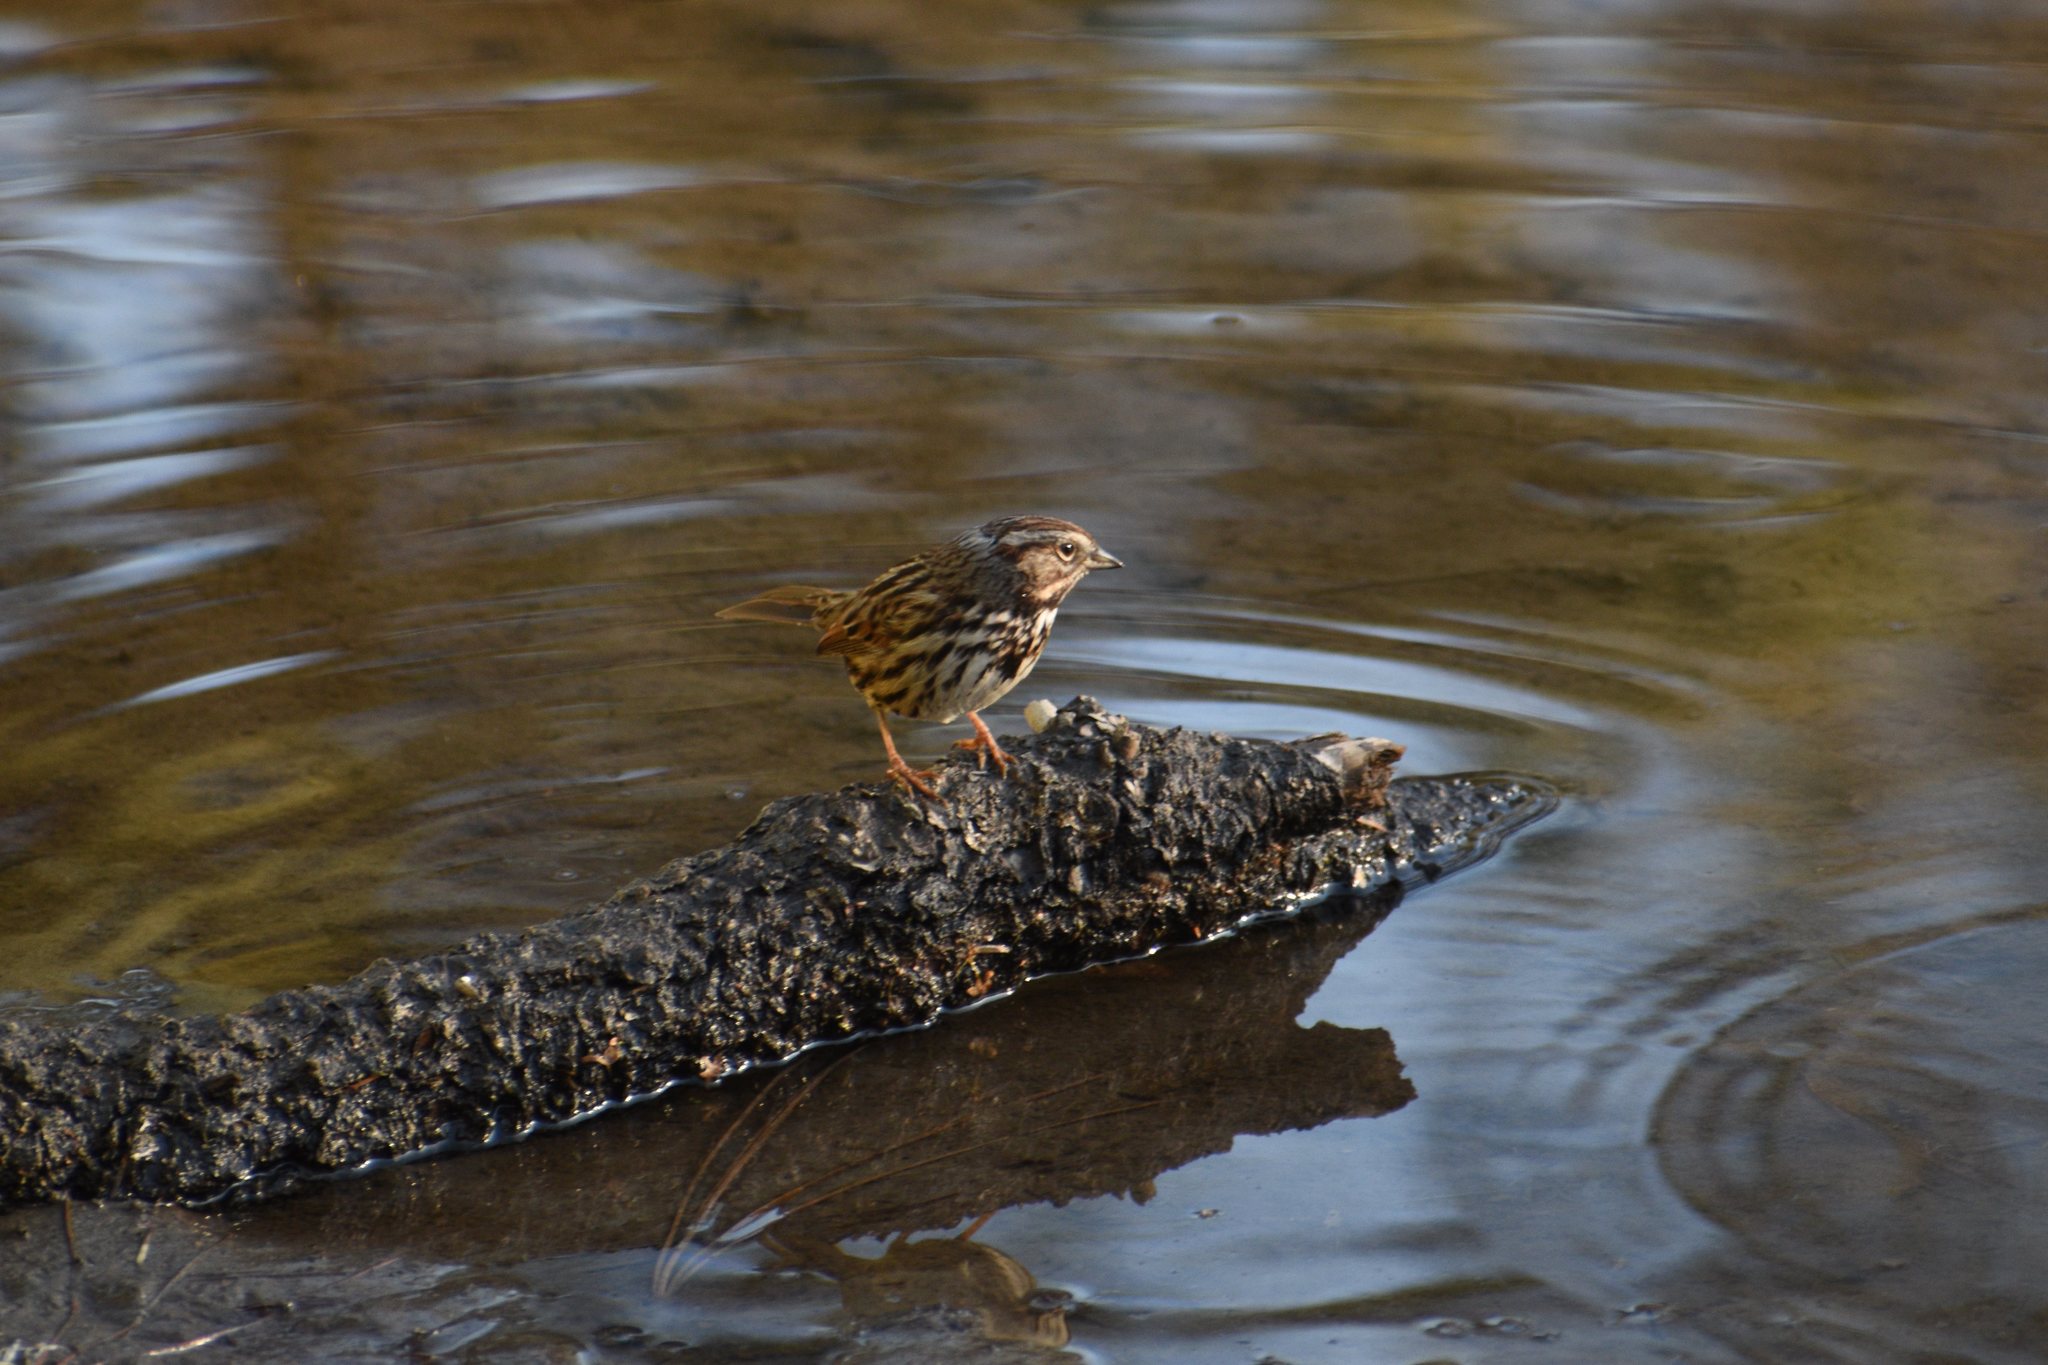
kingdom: Animalia
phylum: Chordata
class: Aves
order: Passeriformes
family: Passerellidae
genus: Melospiza
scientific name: Melospiza melodia
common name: Song sparrow
